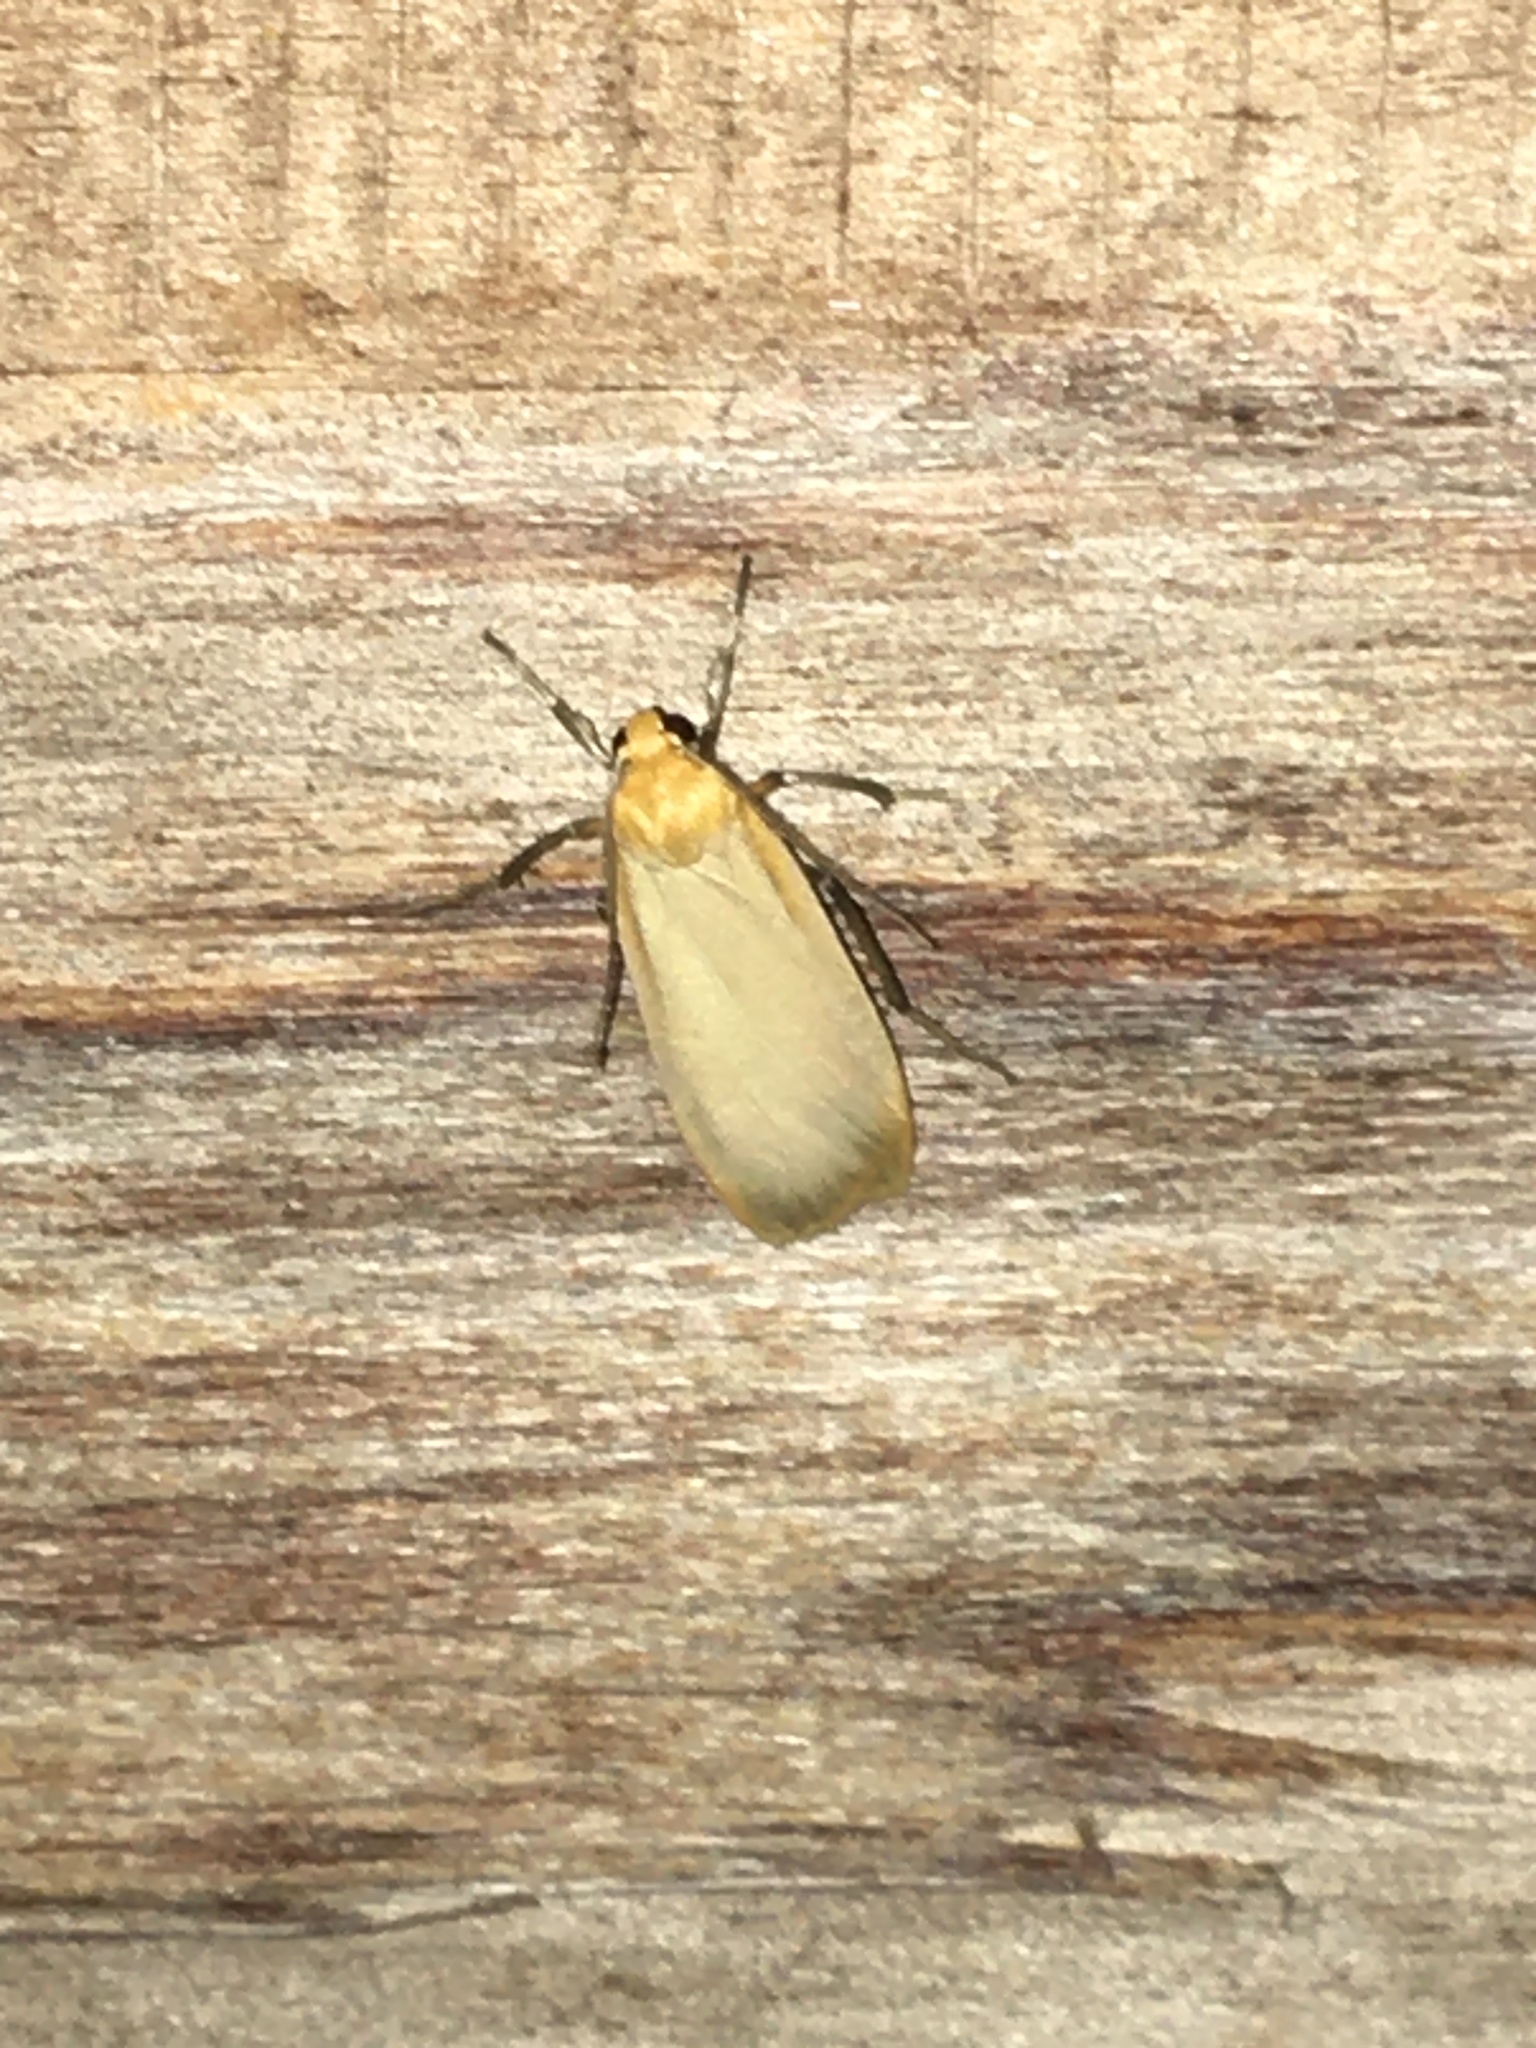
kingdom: Animalia
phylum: Arthropoda
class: Insecta
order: Lepidoptera
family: Erebidae
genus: Katha
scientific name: Katha depressa
